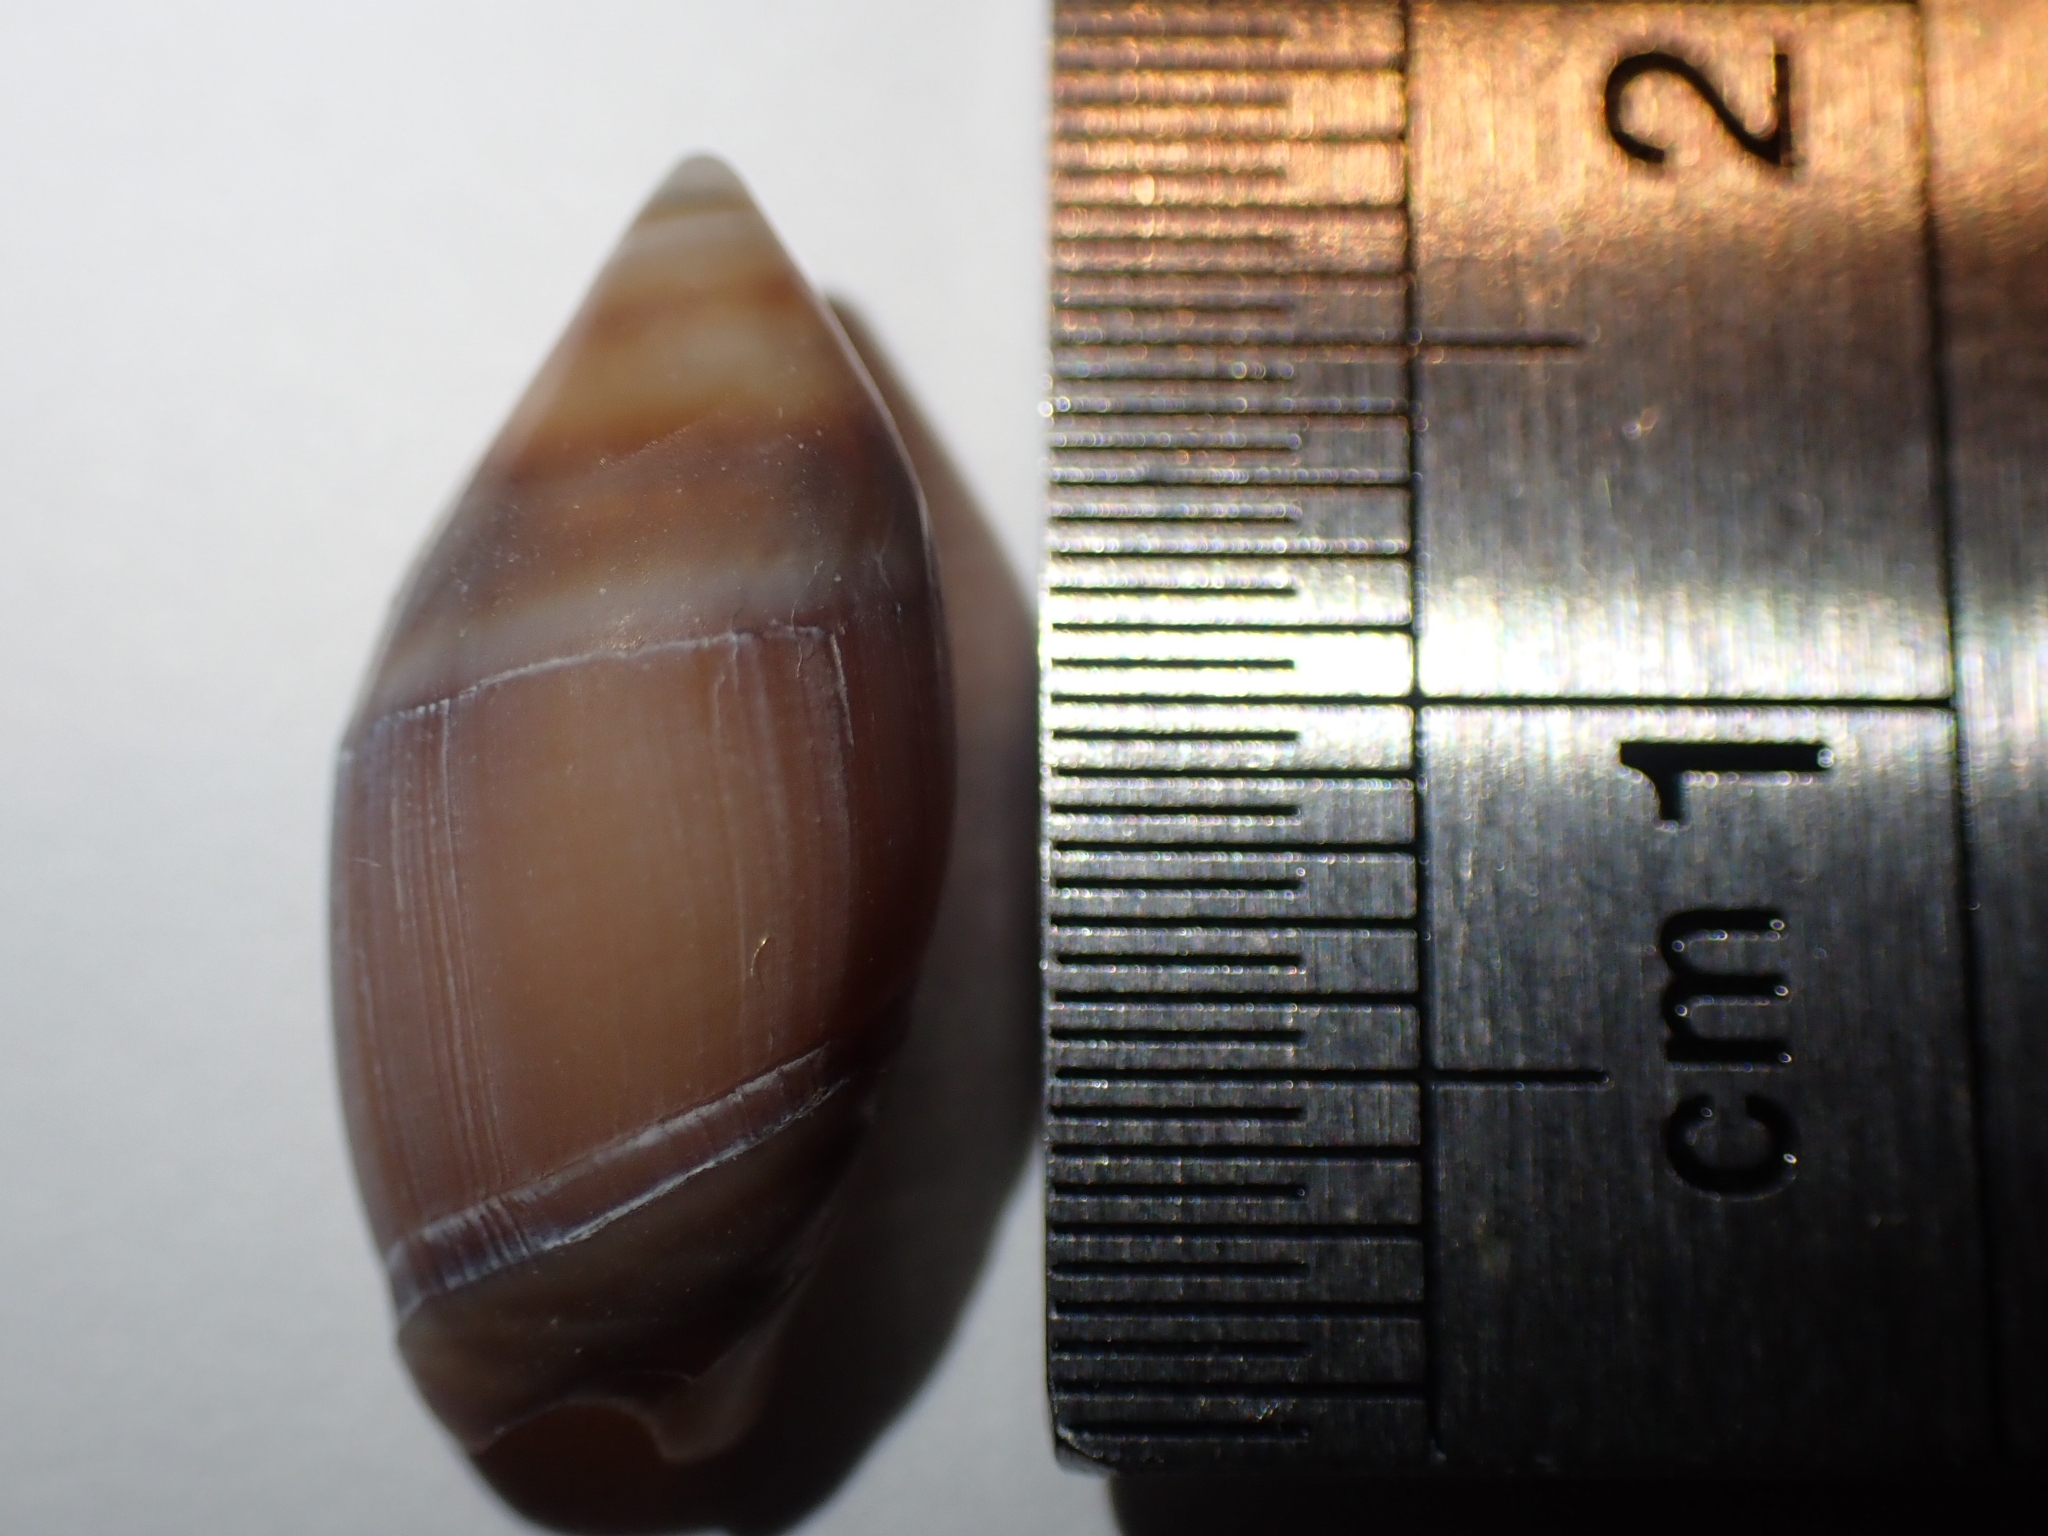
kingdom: Animalia
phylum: Mollusca
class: Gastropoda
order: Neogastropoda
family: Ancillariidae
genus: Amalda
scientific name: Amalda australis
